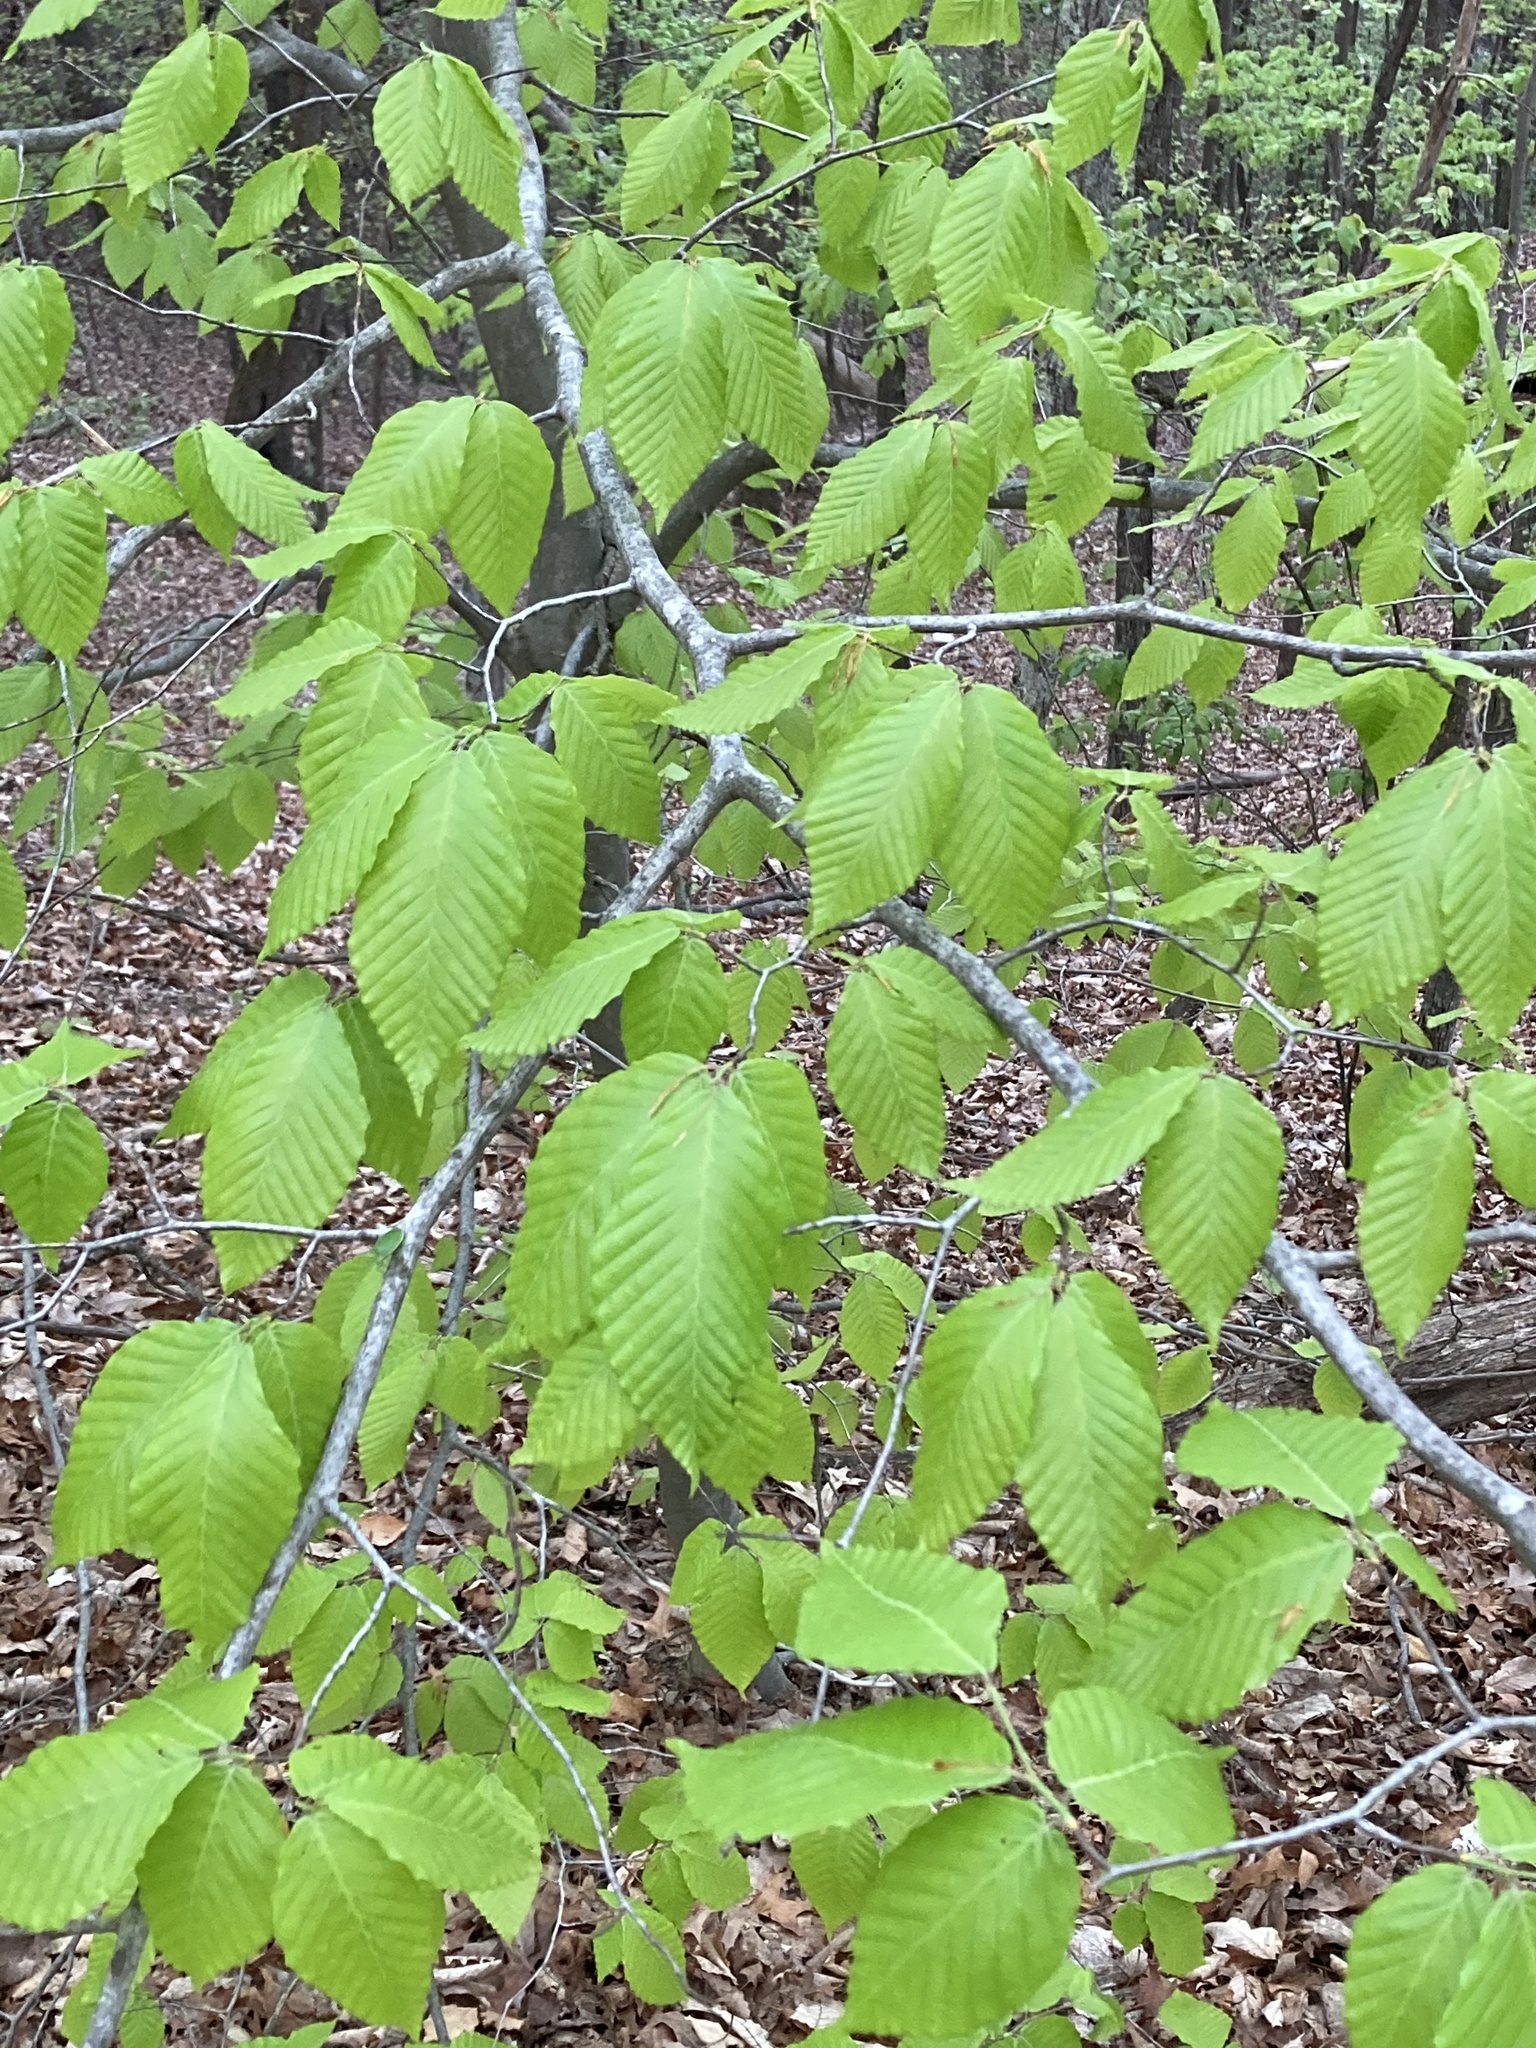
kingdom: Plantae
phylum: Tracheophyta
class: Magnoliopsida
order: Fagales
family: Fagaceae
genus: Fagus
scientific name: Fagus grandifolia
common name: American beech
